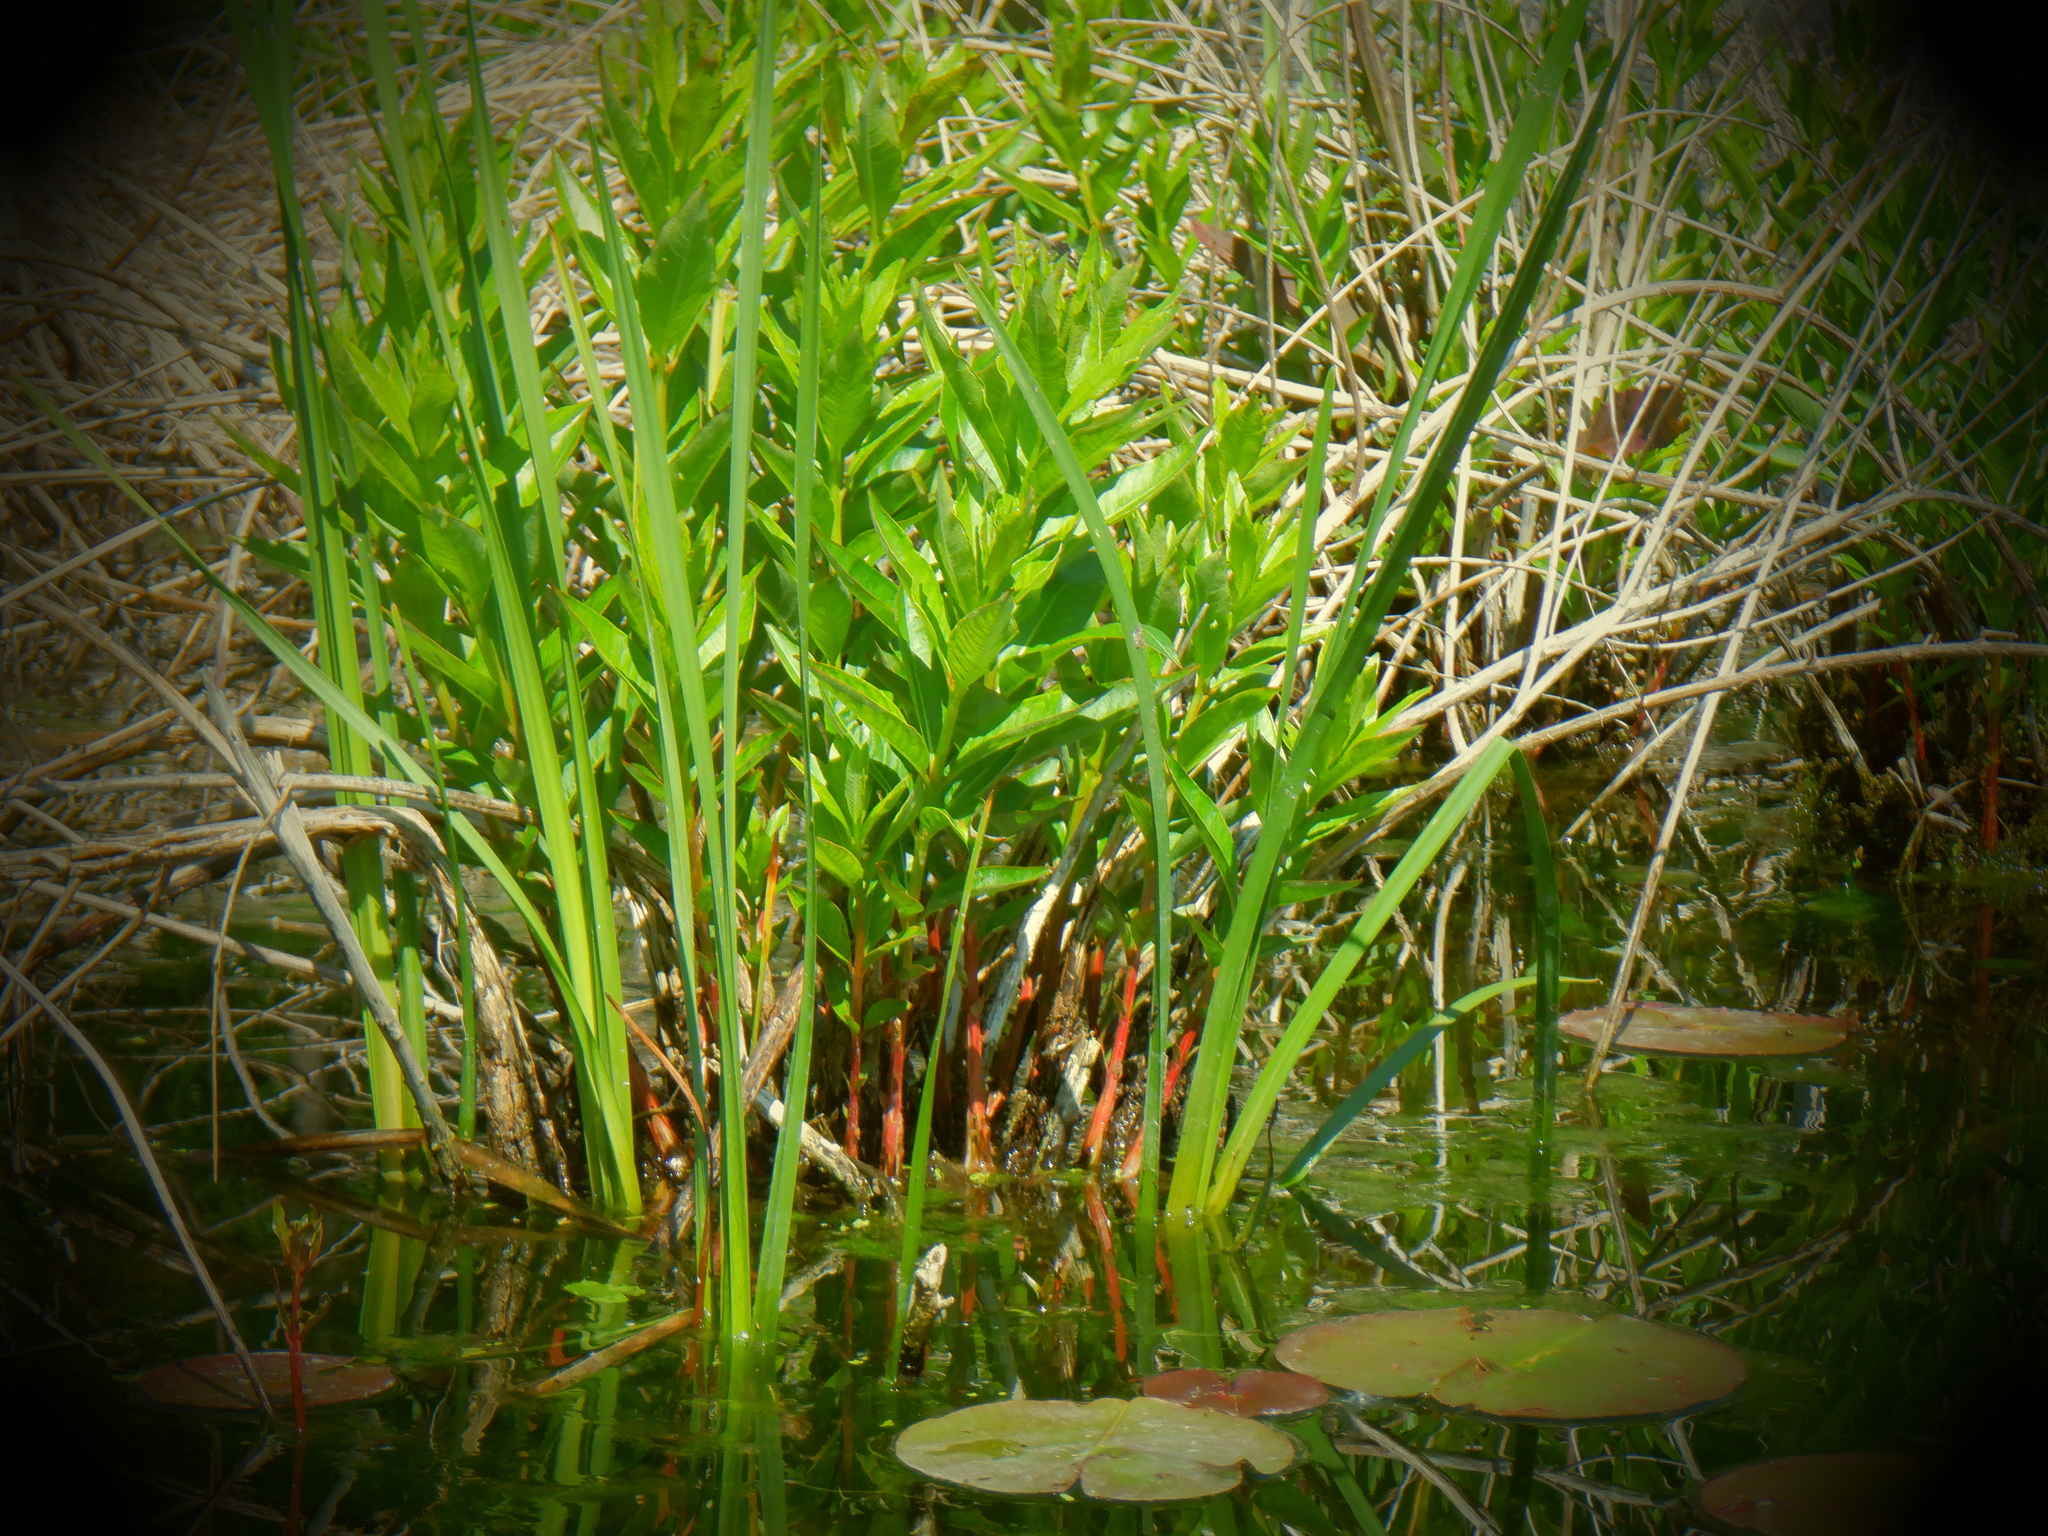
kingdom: Plantae
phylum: Tracheophyta
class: Magnoliopsida
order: Myrtales
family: Lythraceae
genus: Decodon
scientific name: Decodon verticillatus
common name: Hairy swamp loosestrife
